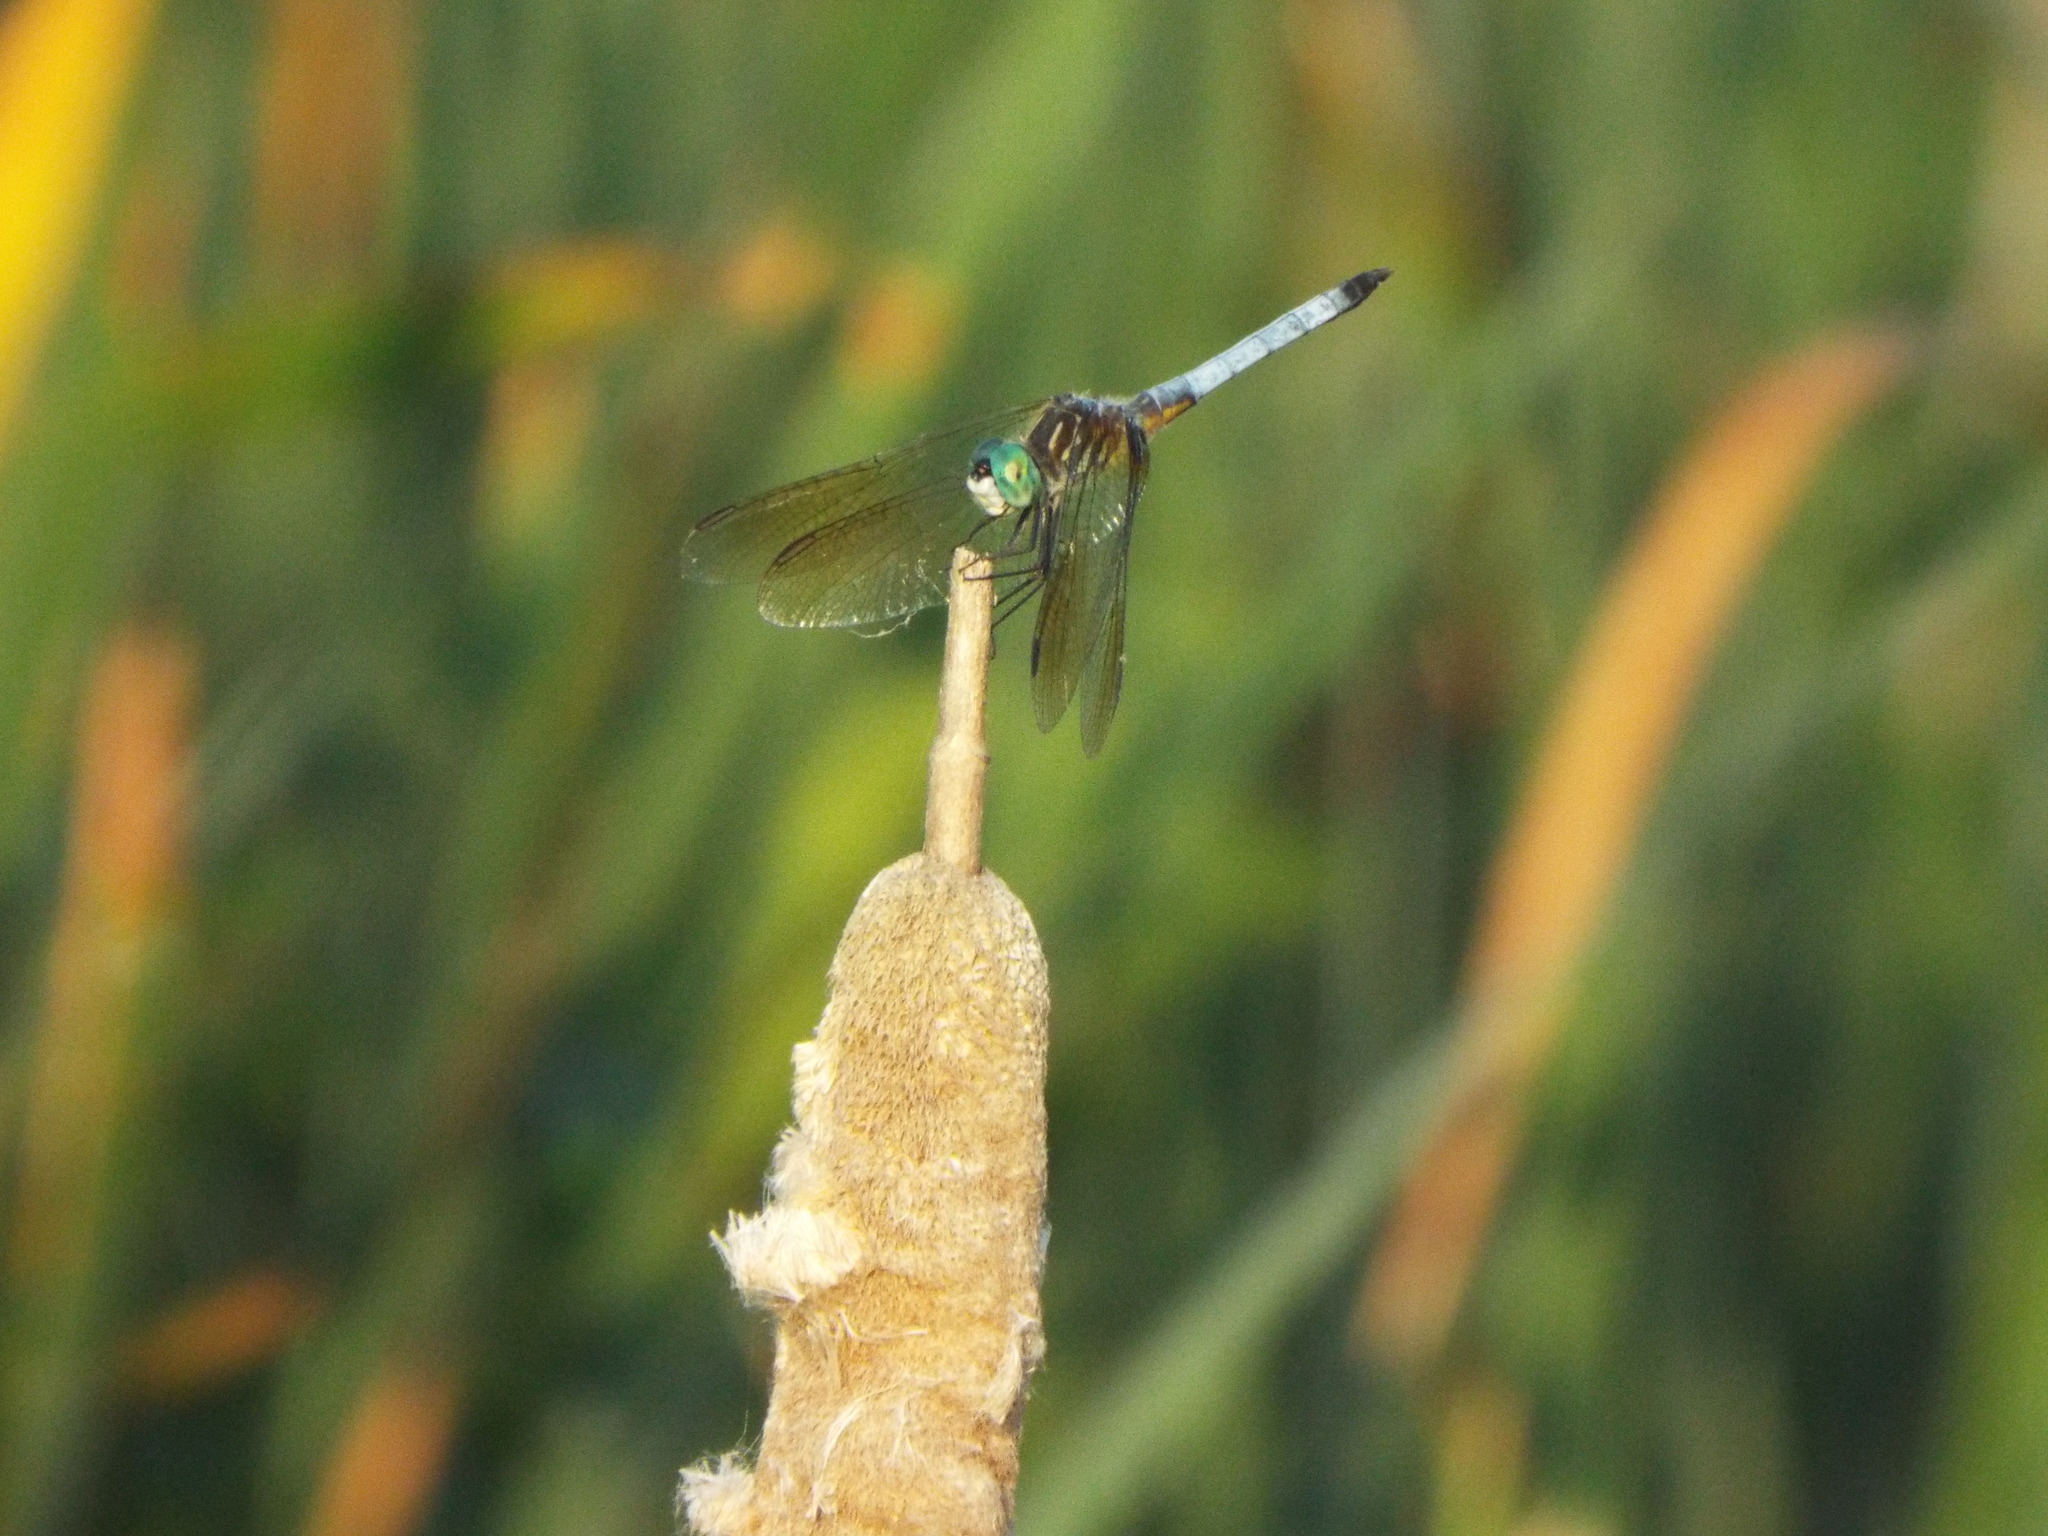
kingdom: Animalia
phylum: Arthropoda
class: Insecta
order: Odonata
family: Libellulidae
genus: Pachydiplax
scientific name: Pachydiplax longipennis
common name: Blue dasher
